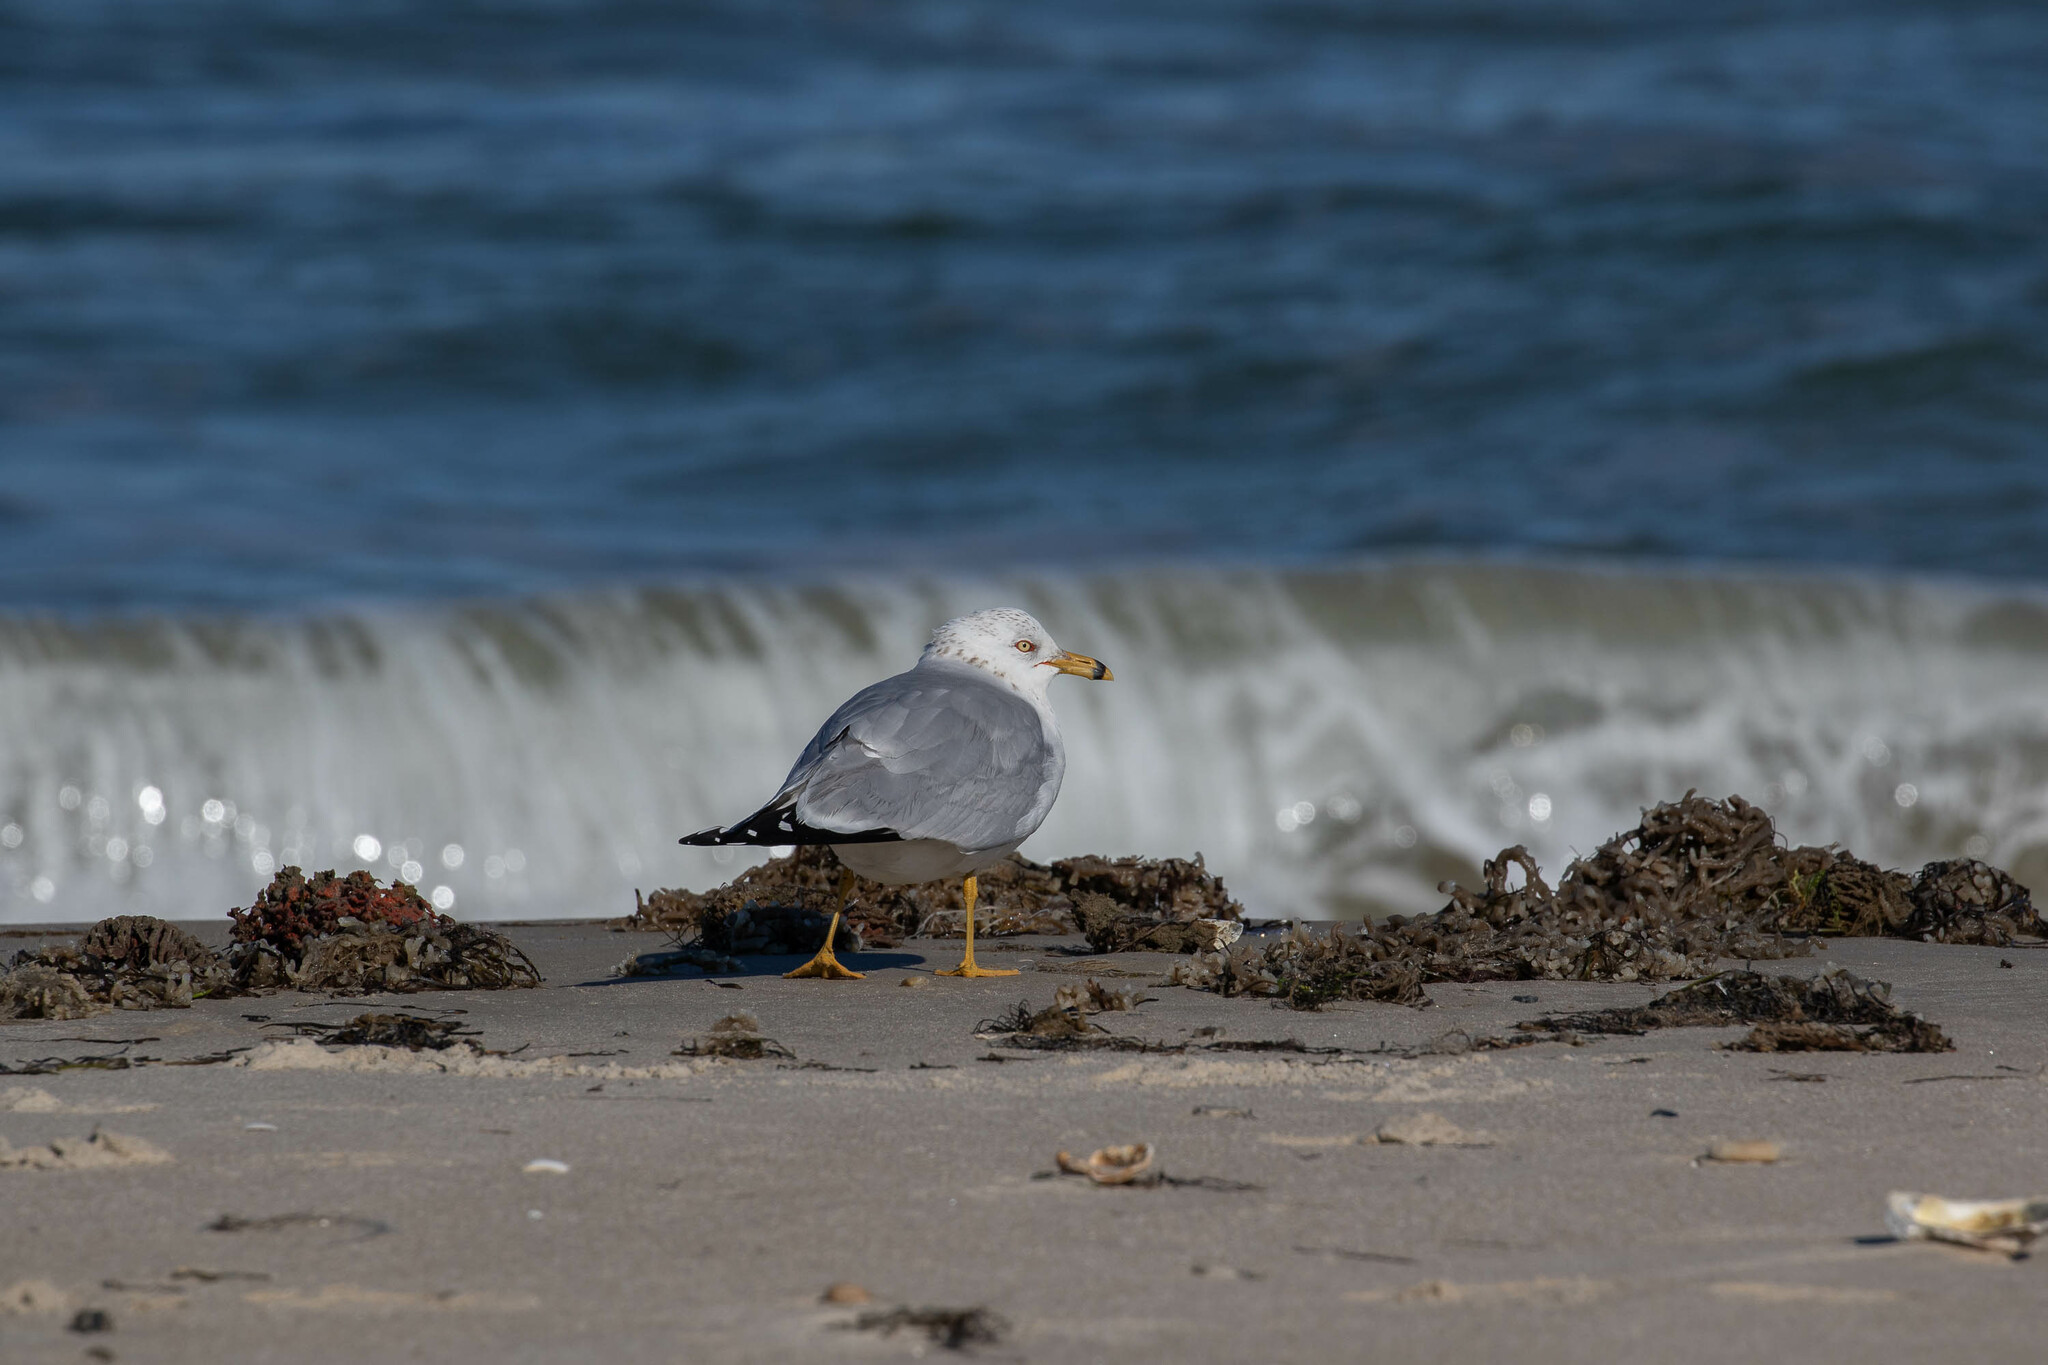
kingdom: Animalia
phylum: Chordata
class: Aves
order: Charadriiformes
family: Laridae
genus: Larus
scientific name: Larus delawarensis
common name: Ring-billed gull
